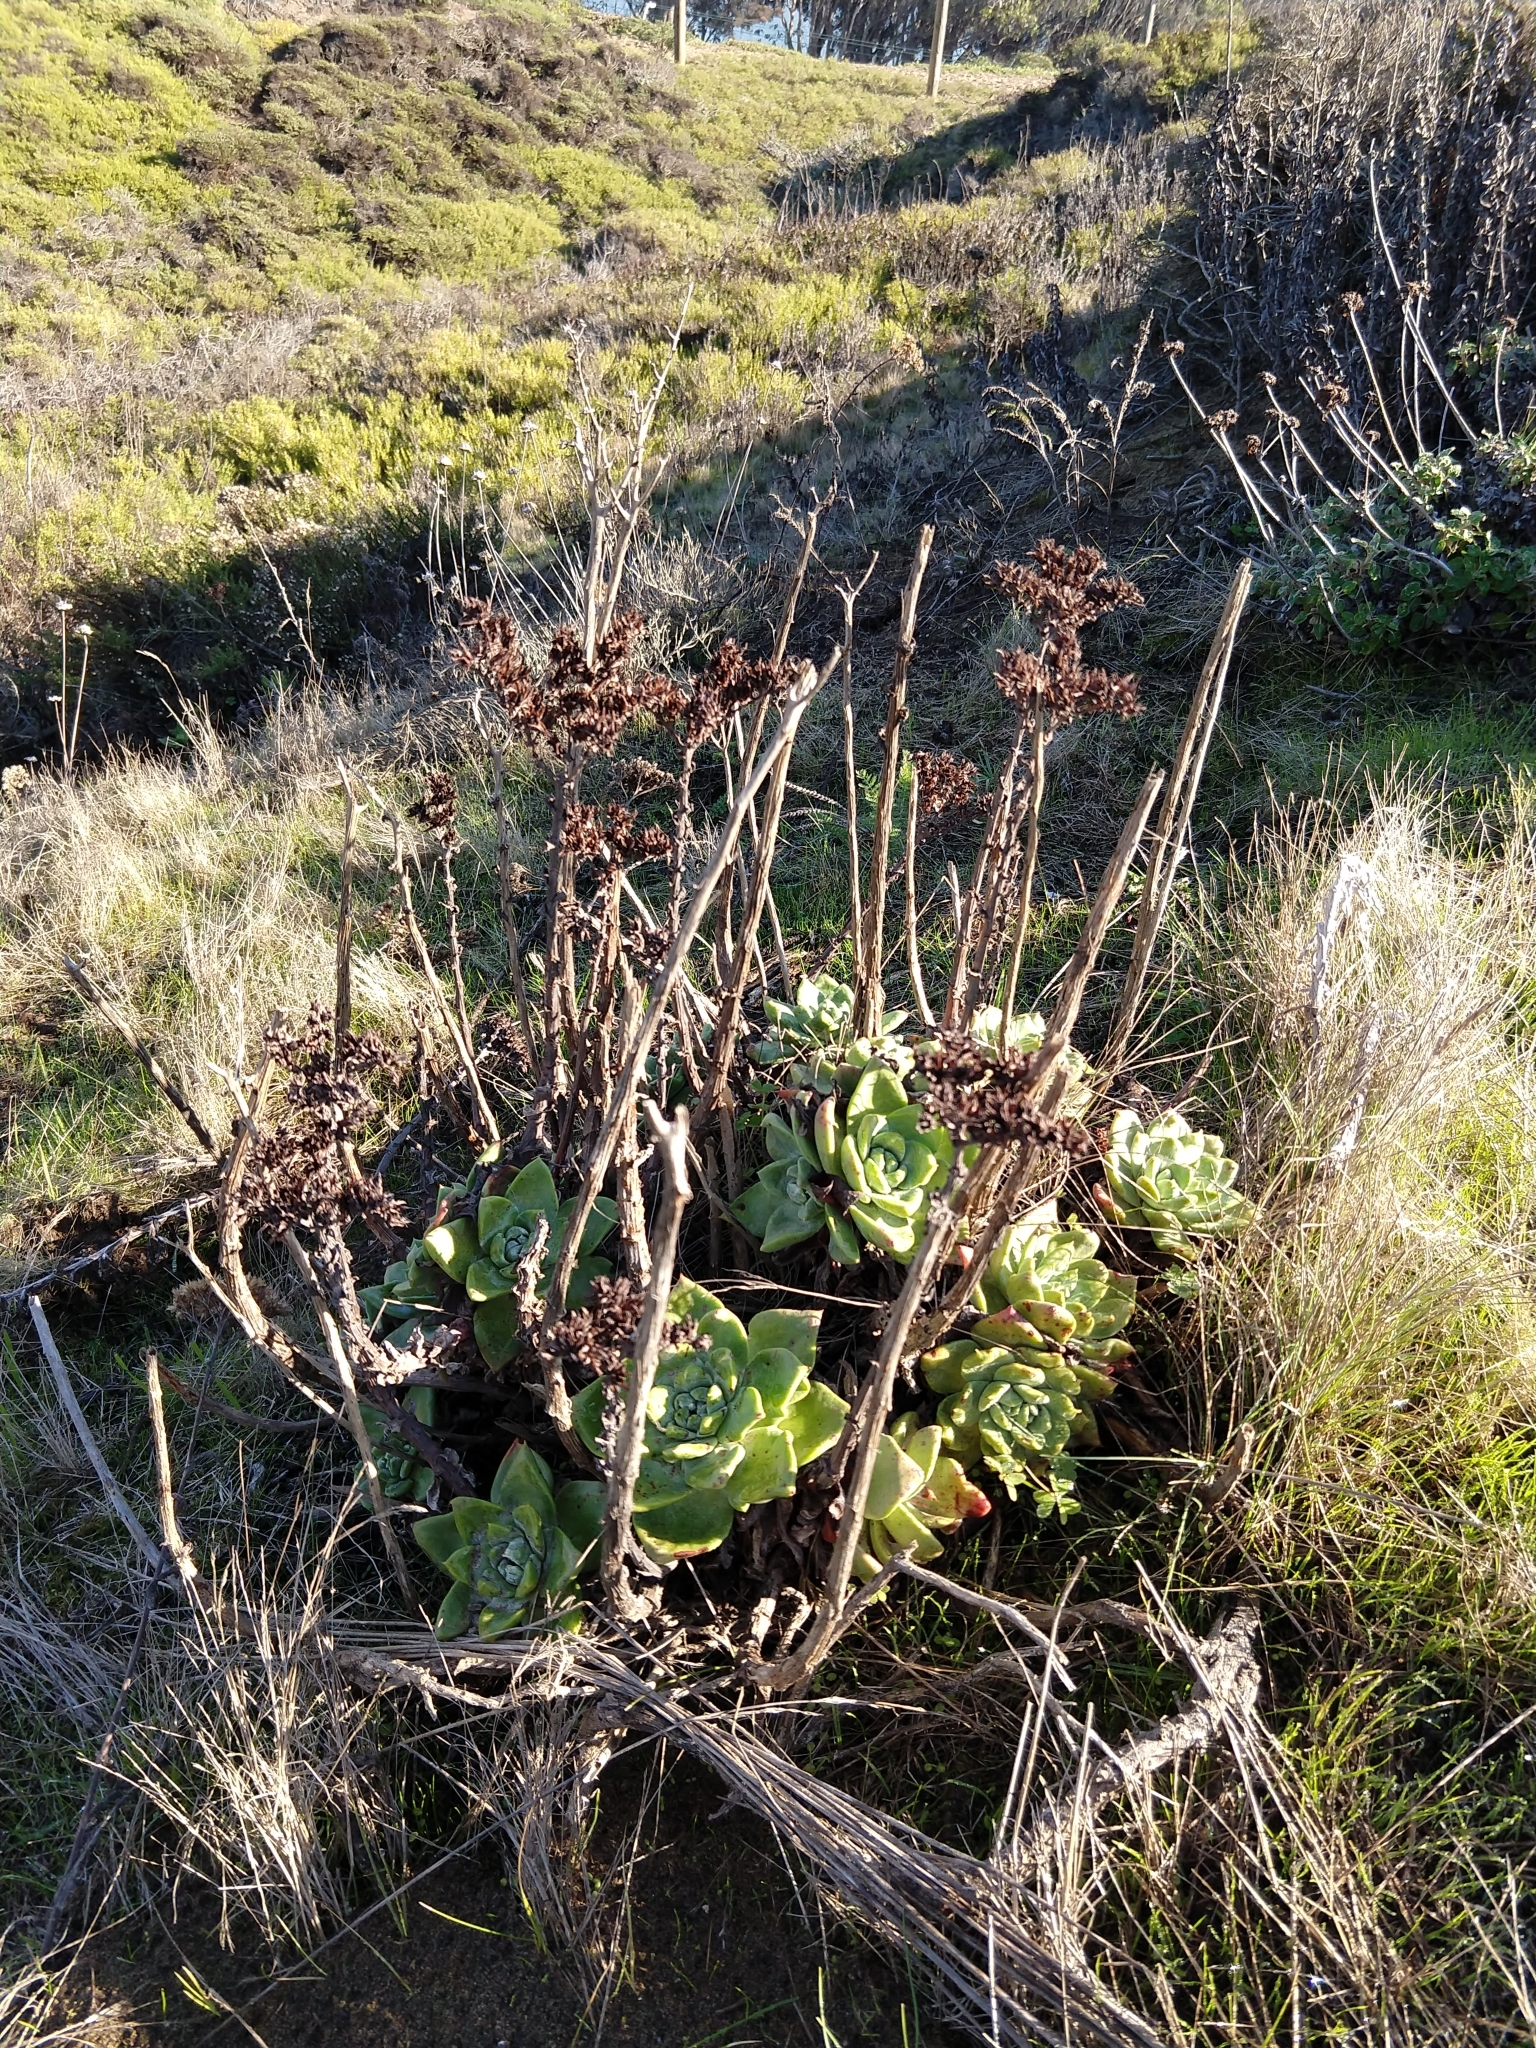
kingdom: Plantae
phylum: Tracheophyta
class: Magnoliopsida
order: Saxifragales
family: Crassulaceae
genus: Dudleya
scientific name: Dudleya farinosa
